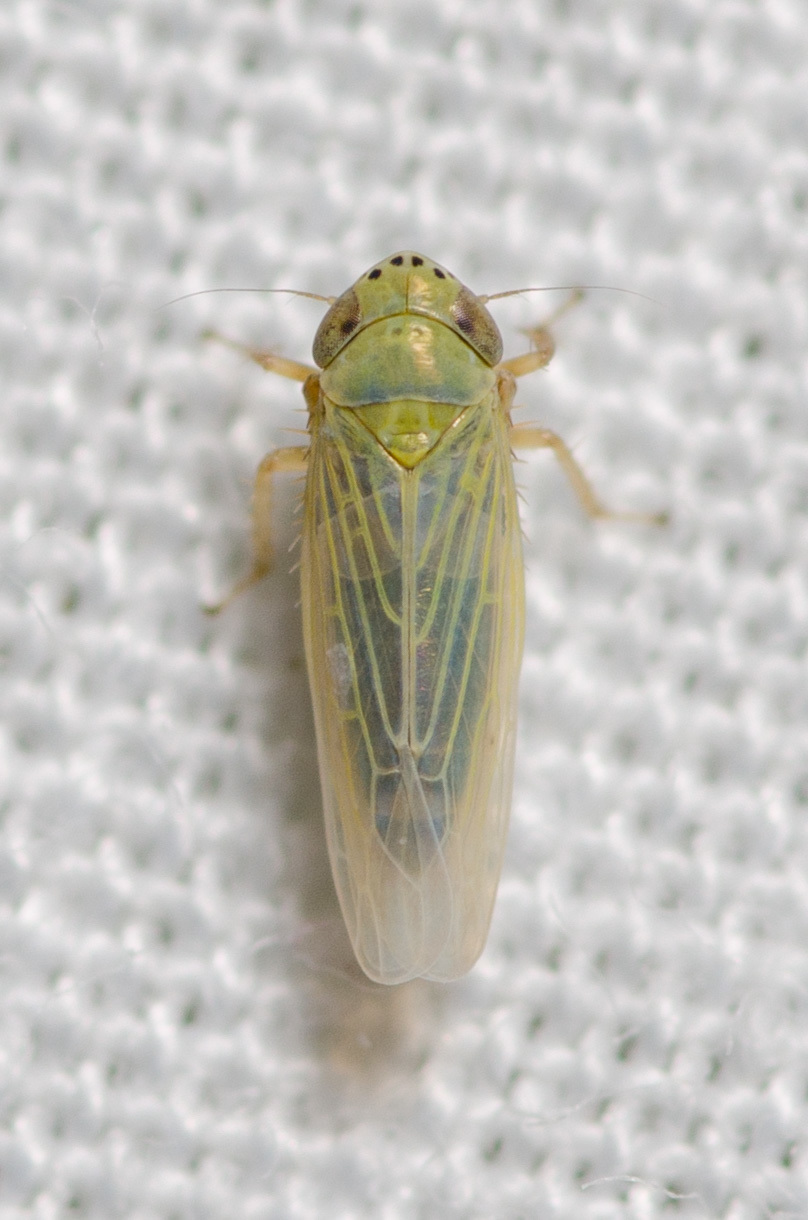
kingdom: Animalia
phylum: Arthropoda
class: Insecta
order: Hemiptera
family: Cicadellidae
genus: Graminella
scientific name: Graminella nigrifrons
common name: Blackfaced leafhopper
